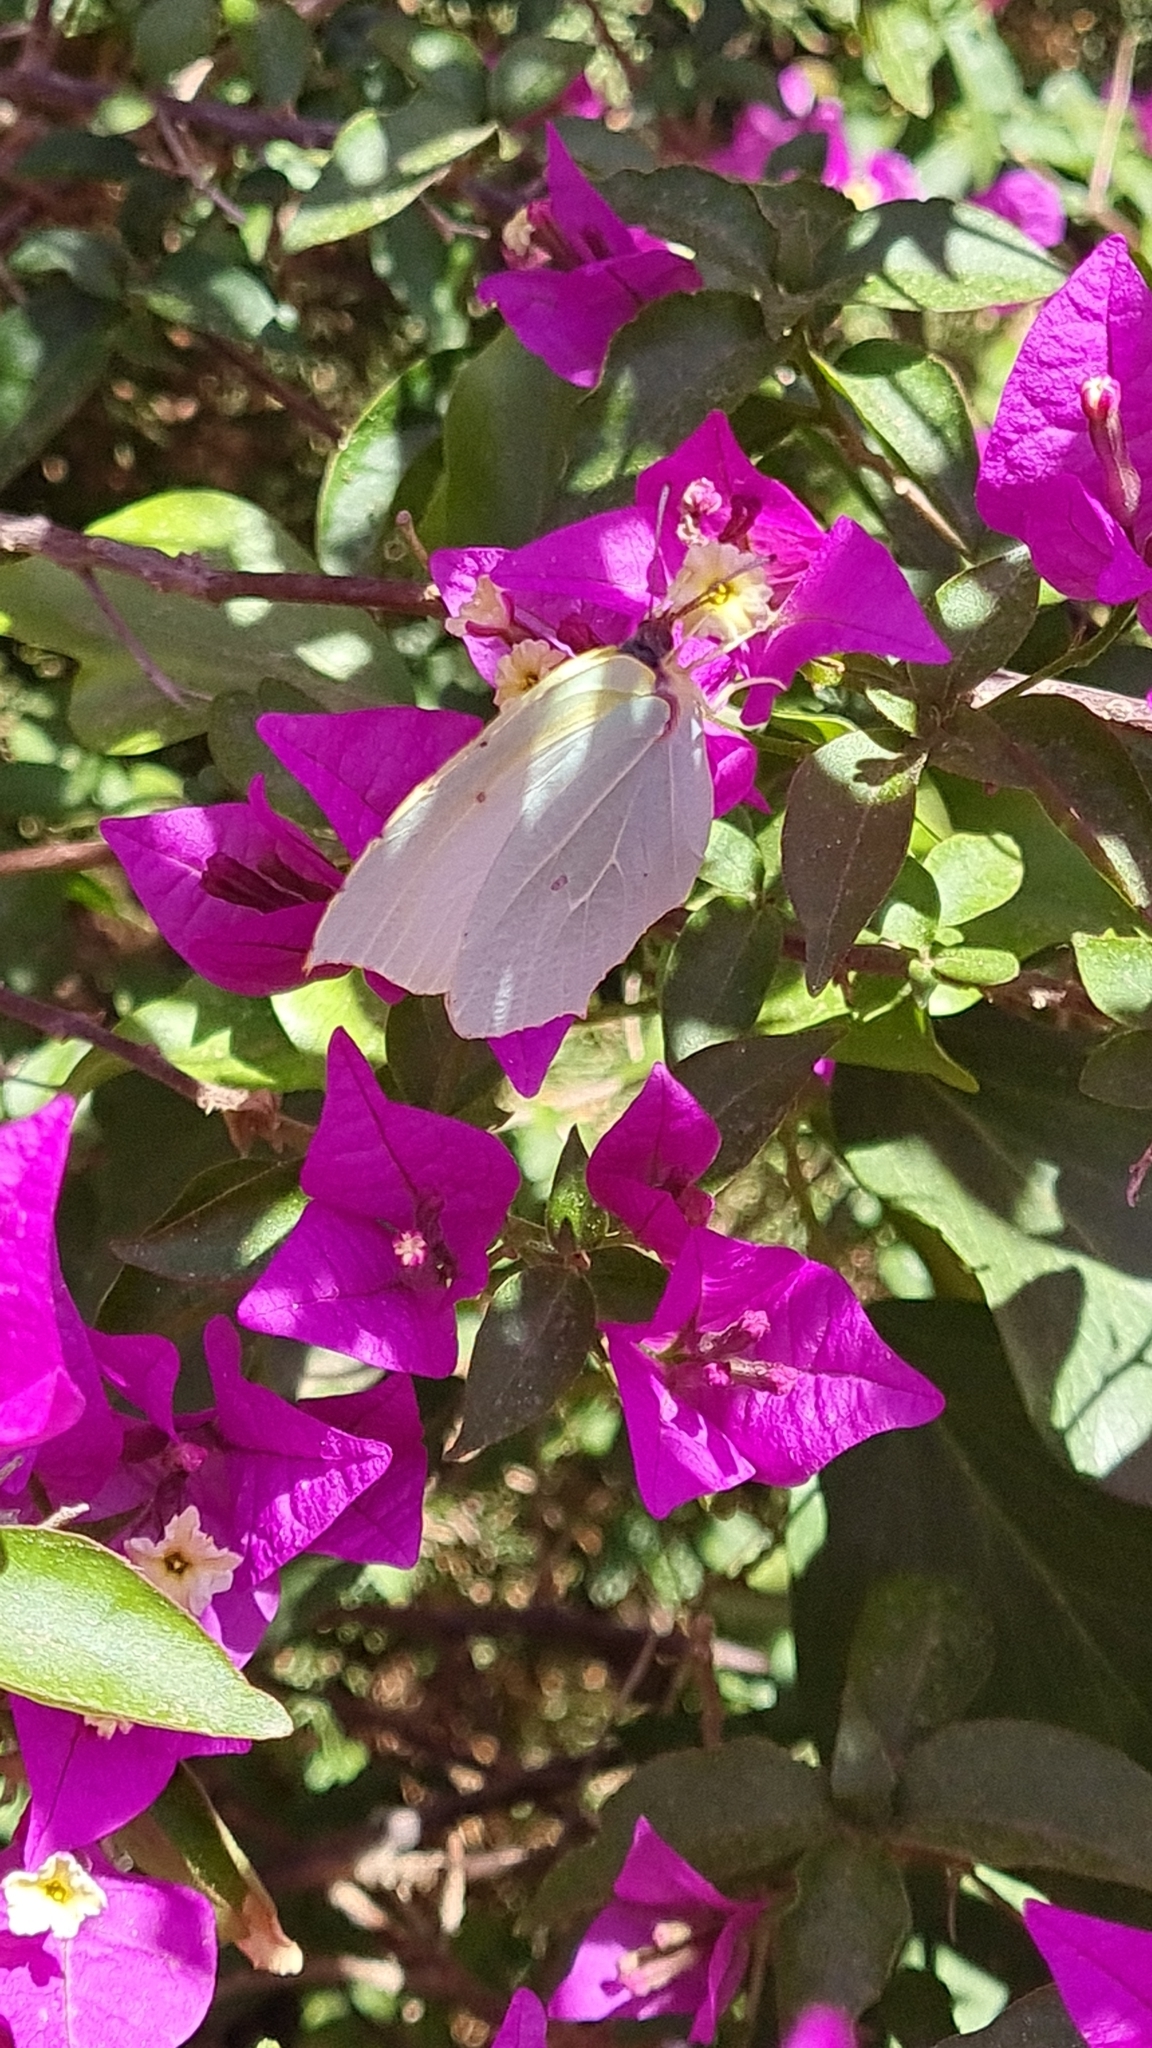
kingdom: Animalia
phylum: Arthropoda
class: Insecta
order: Lepidoptera
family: Pieridae
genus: Gonepteryx
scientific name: Gonepteryx cleopatra
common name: Cleopatra
